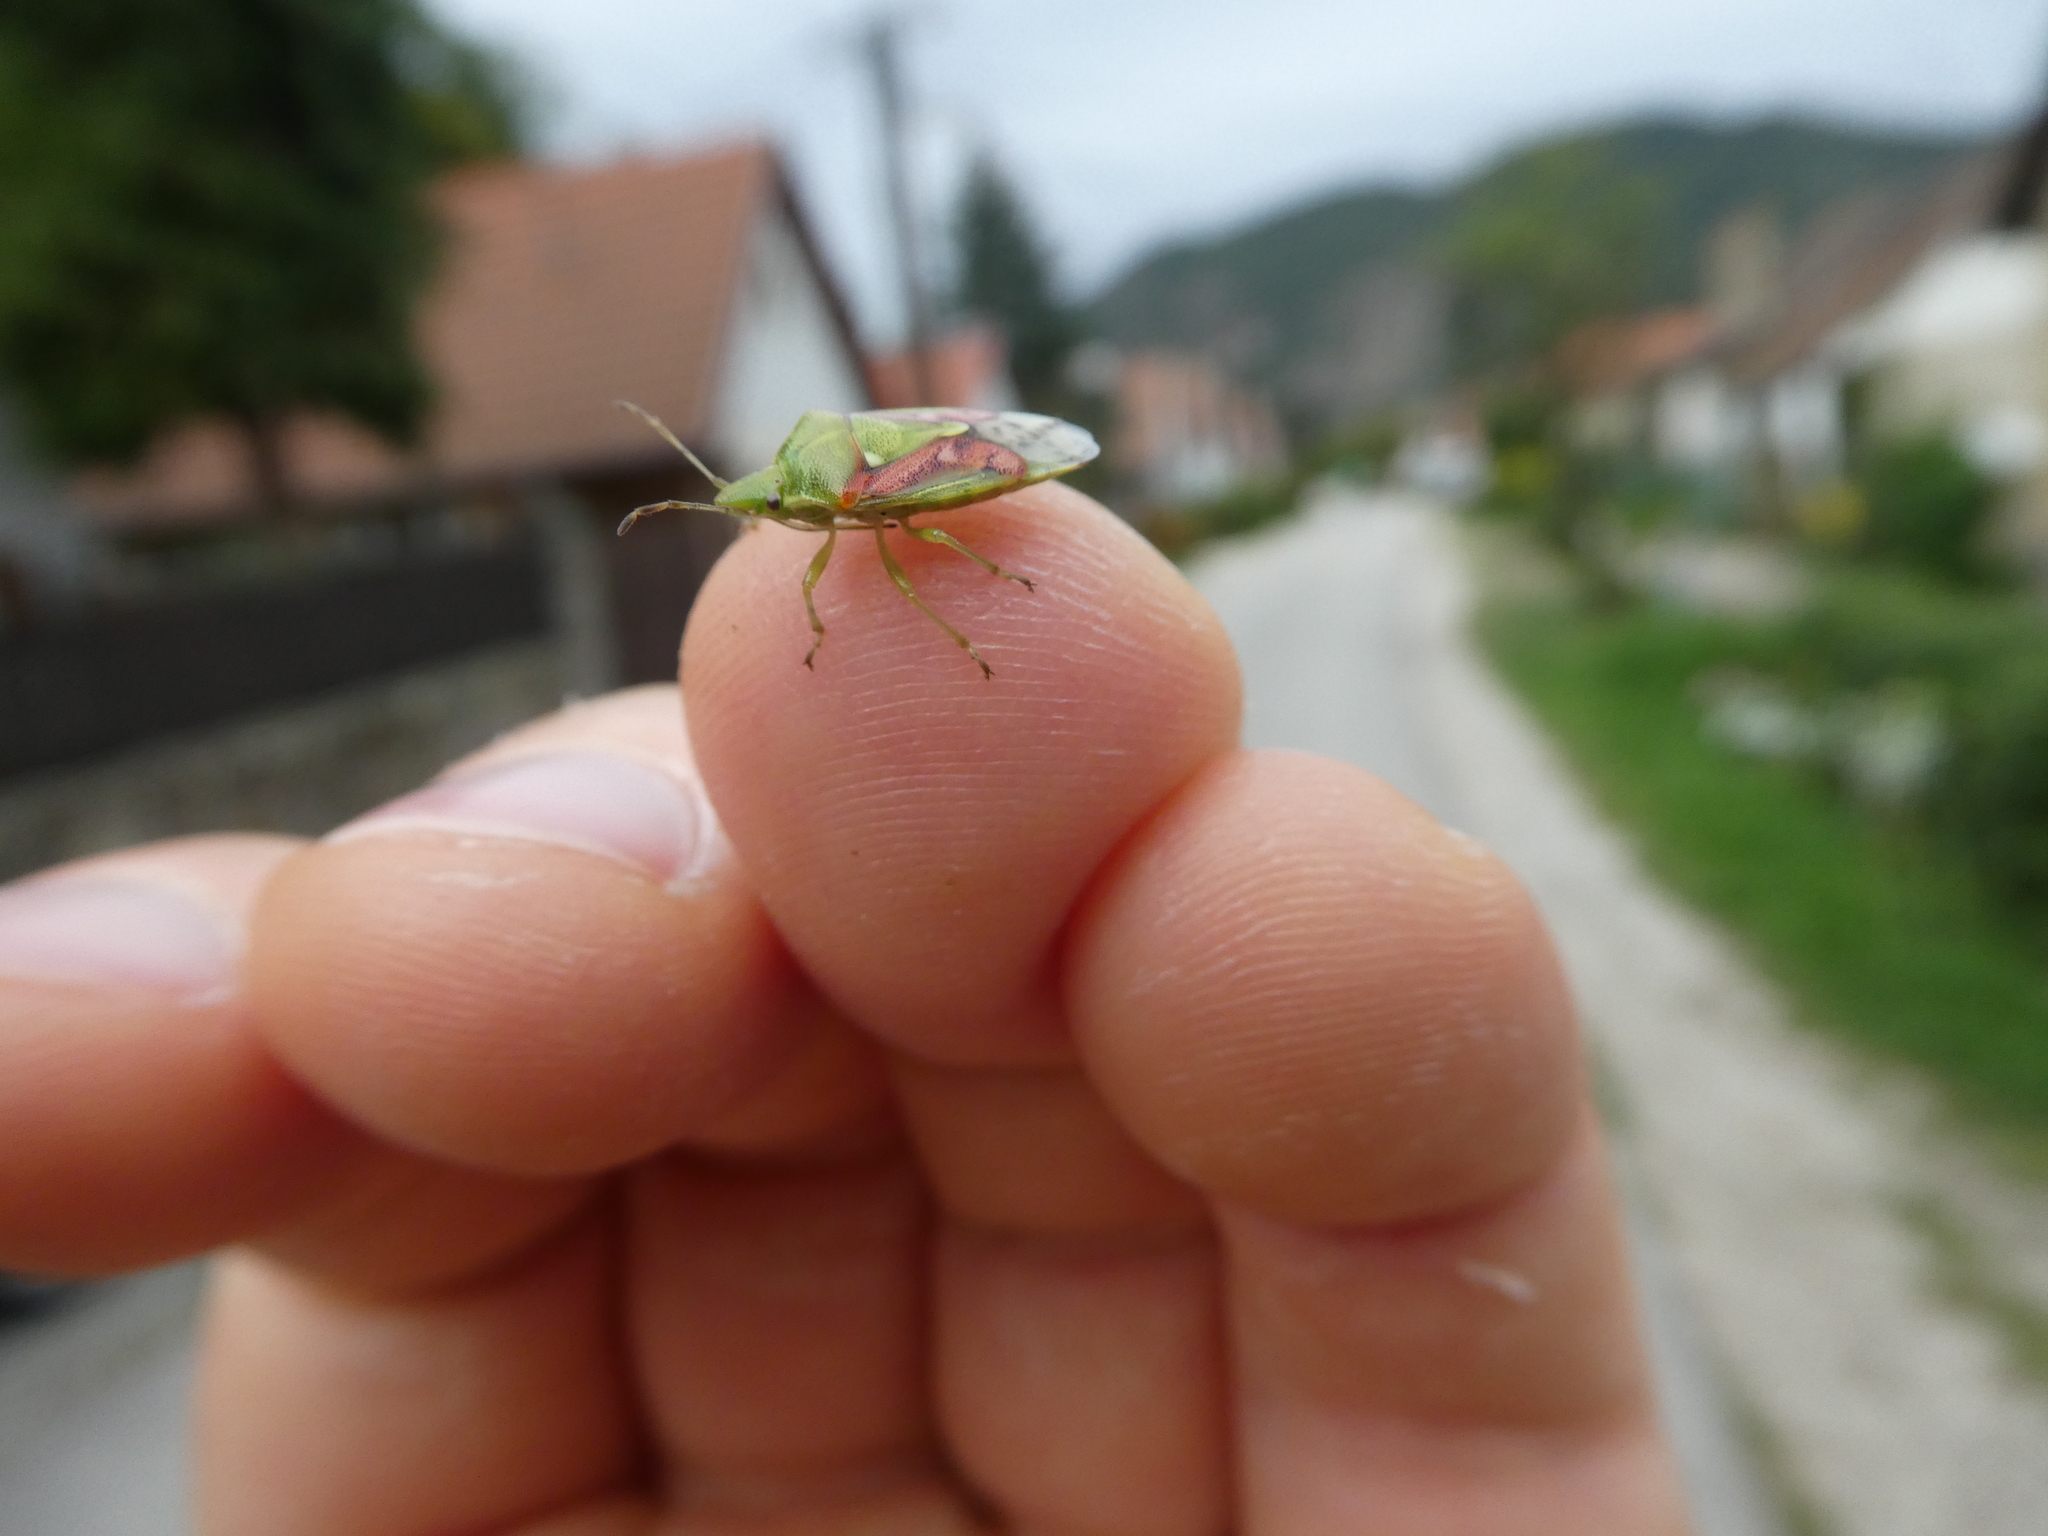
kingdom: Animalia
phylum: Arthropoda
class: Insecta
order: Hemiptera
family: Acanthosomatidae
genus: Cyphostethus
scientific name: Cyphostethus tristriatus
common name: Juniper shieldbug
